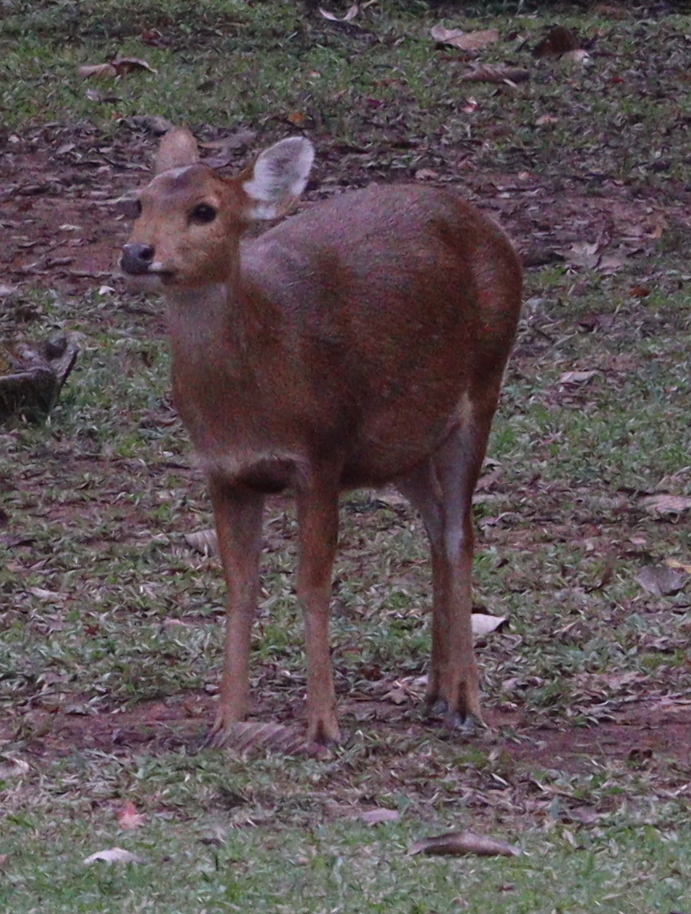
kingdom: Animalia
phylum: Chordata
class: Mammalia
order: Artiodactyla
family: Cervidae
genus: Axis
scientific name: Axis porcinus
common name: Hog deer
